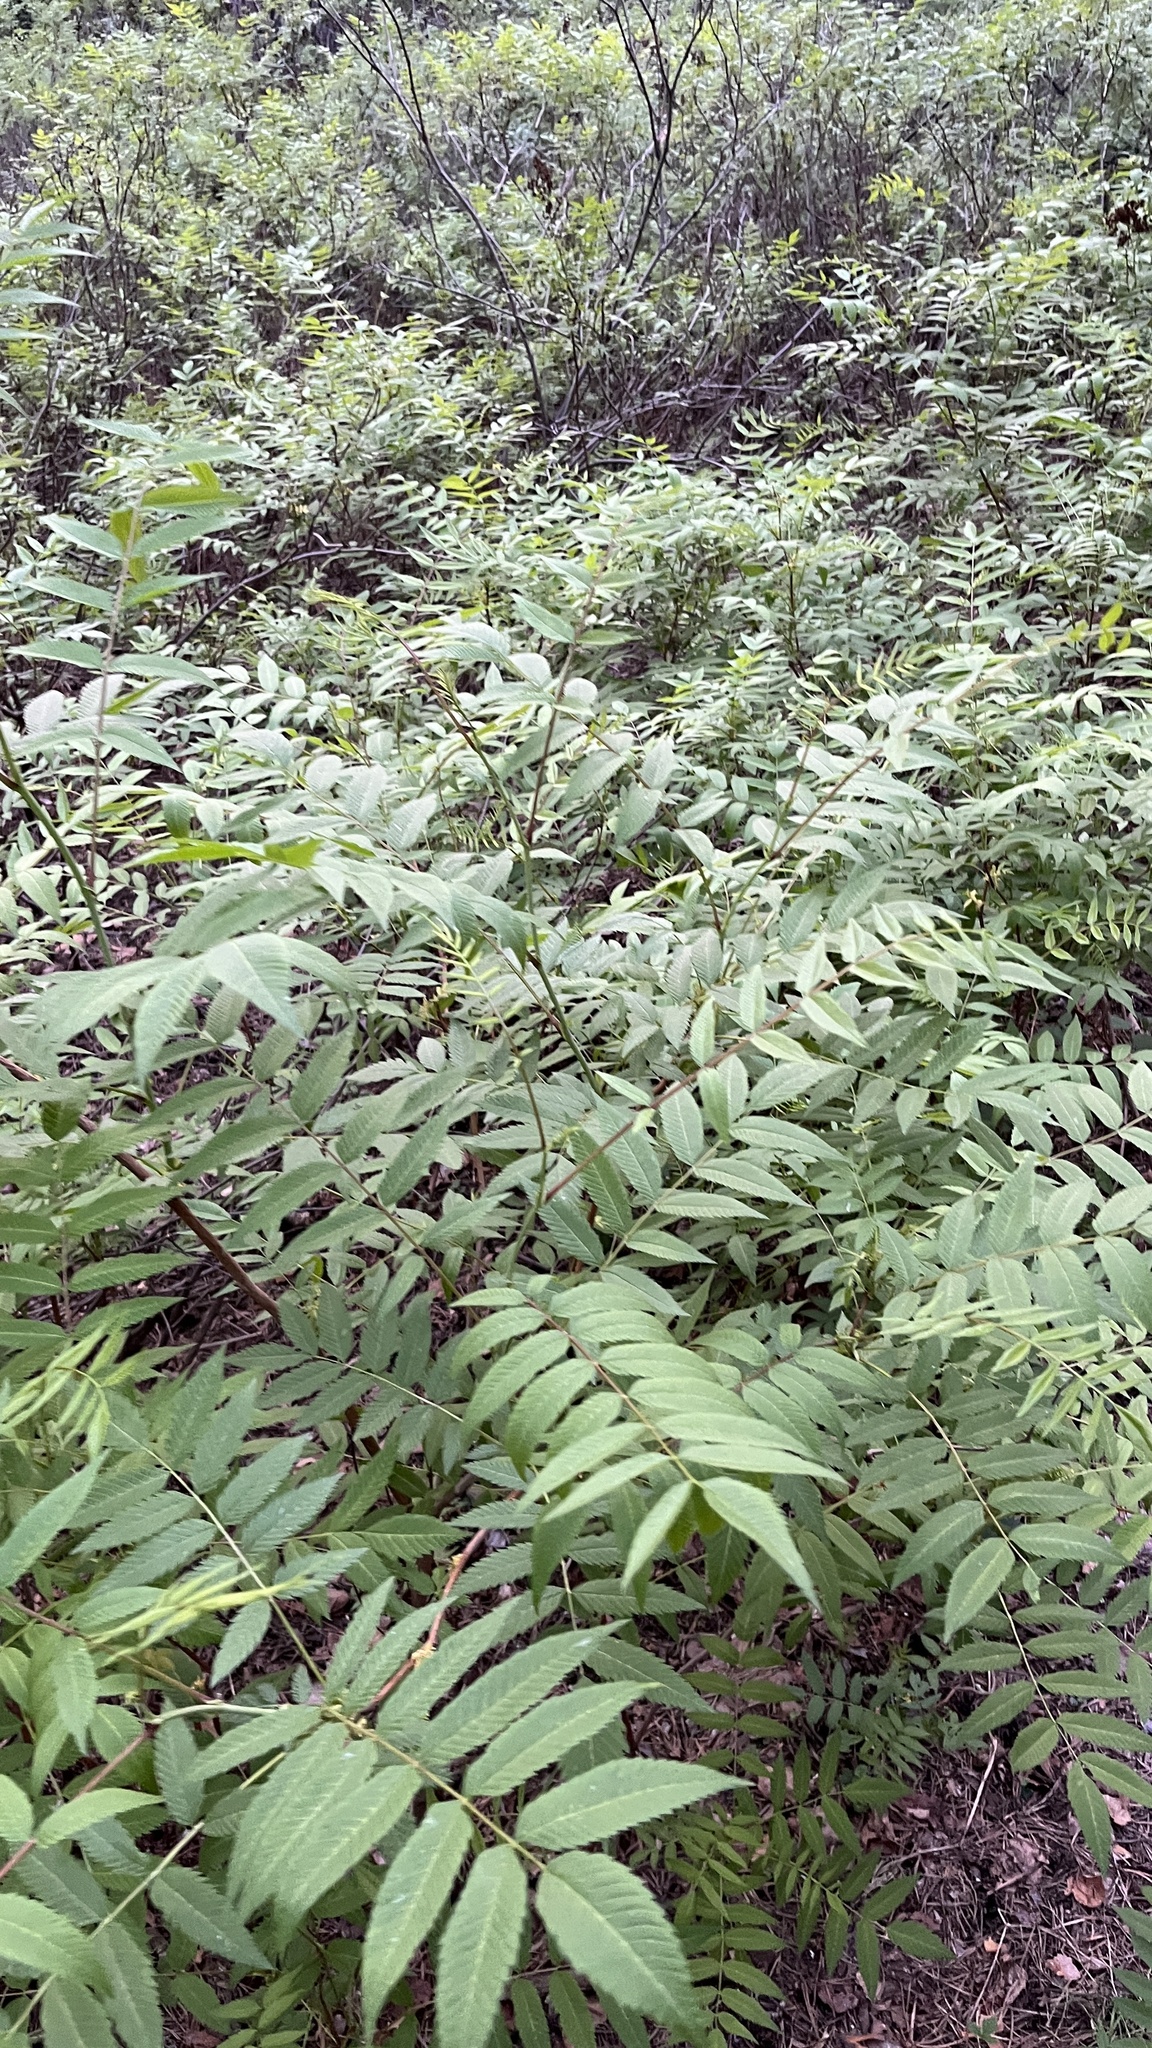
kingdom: Plantae
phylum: Tracheophyta
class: Magnoliopsida
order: Rosales
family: Rosaceae
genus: Sorbaria
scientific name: Sorbaria sorbifolia
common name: False spiraea
